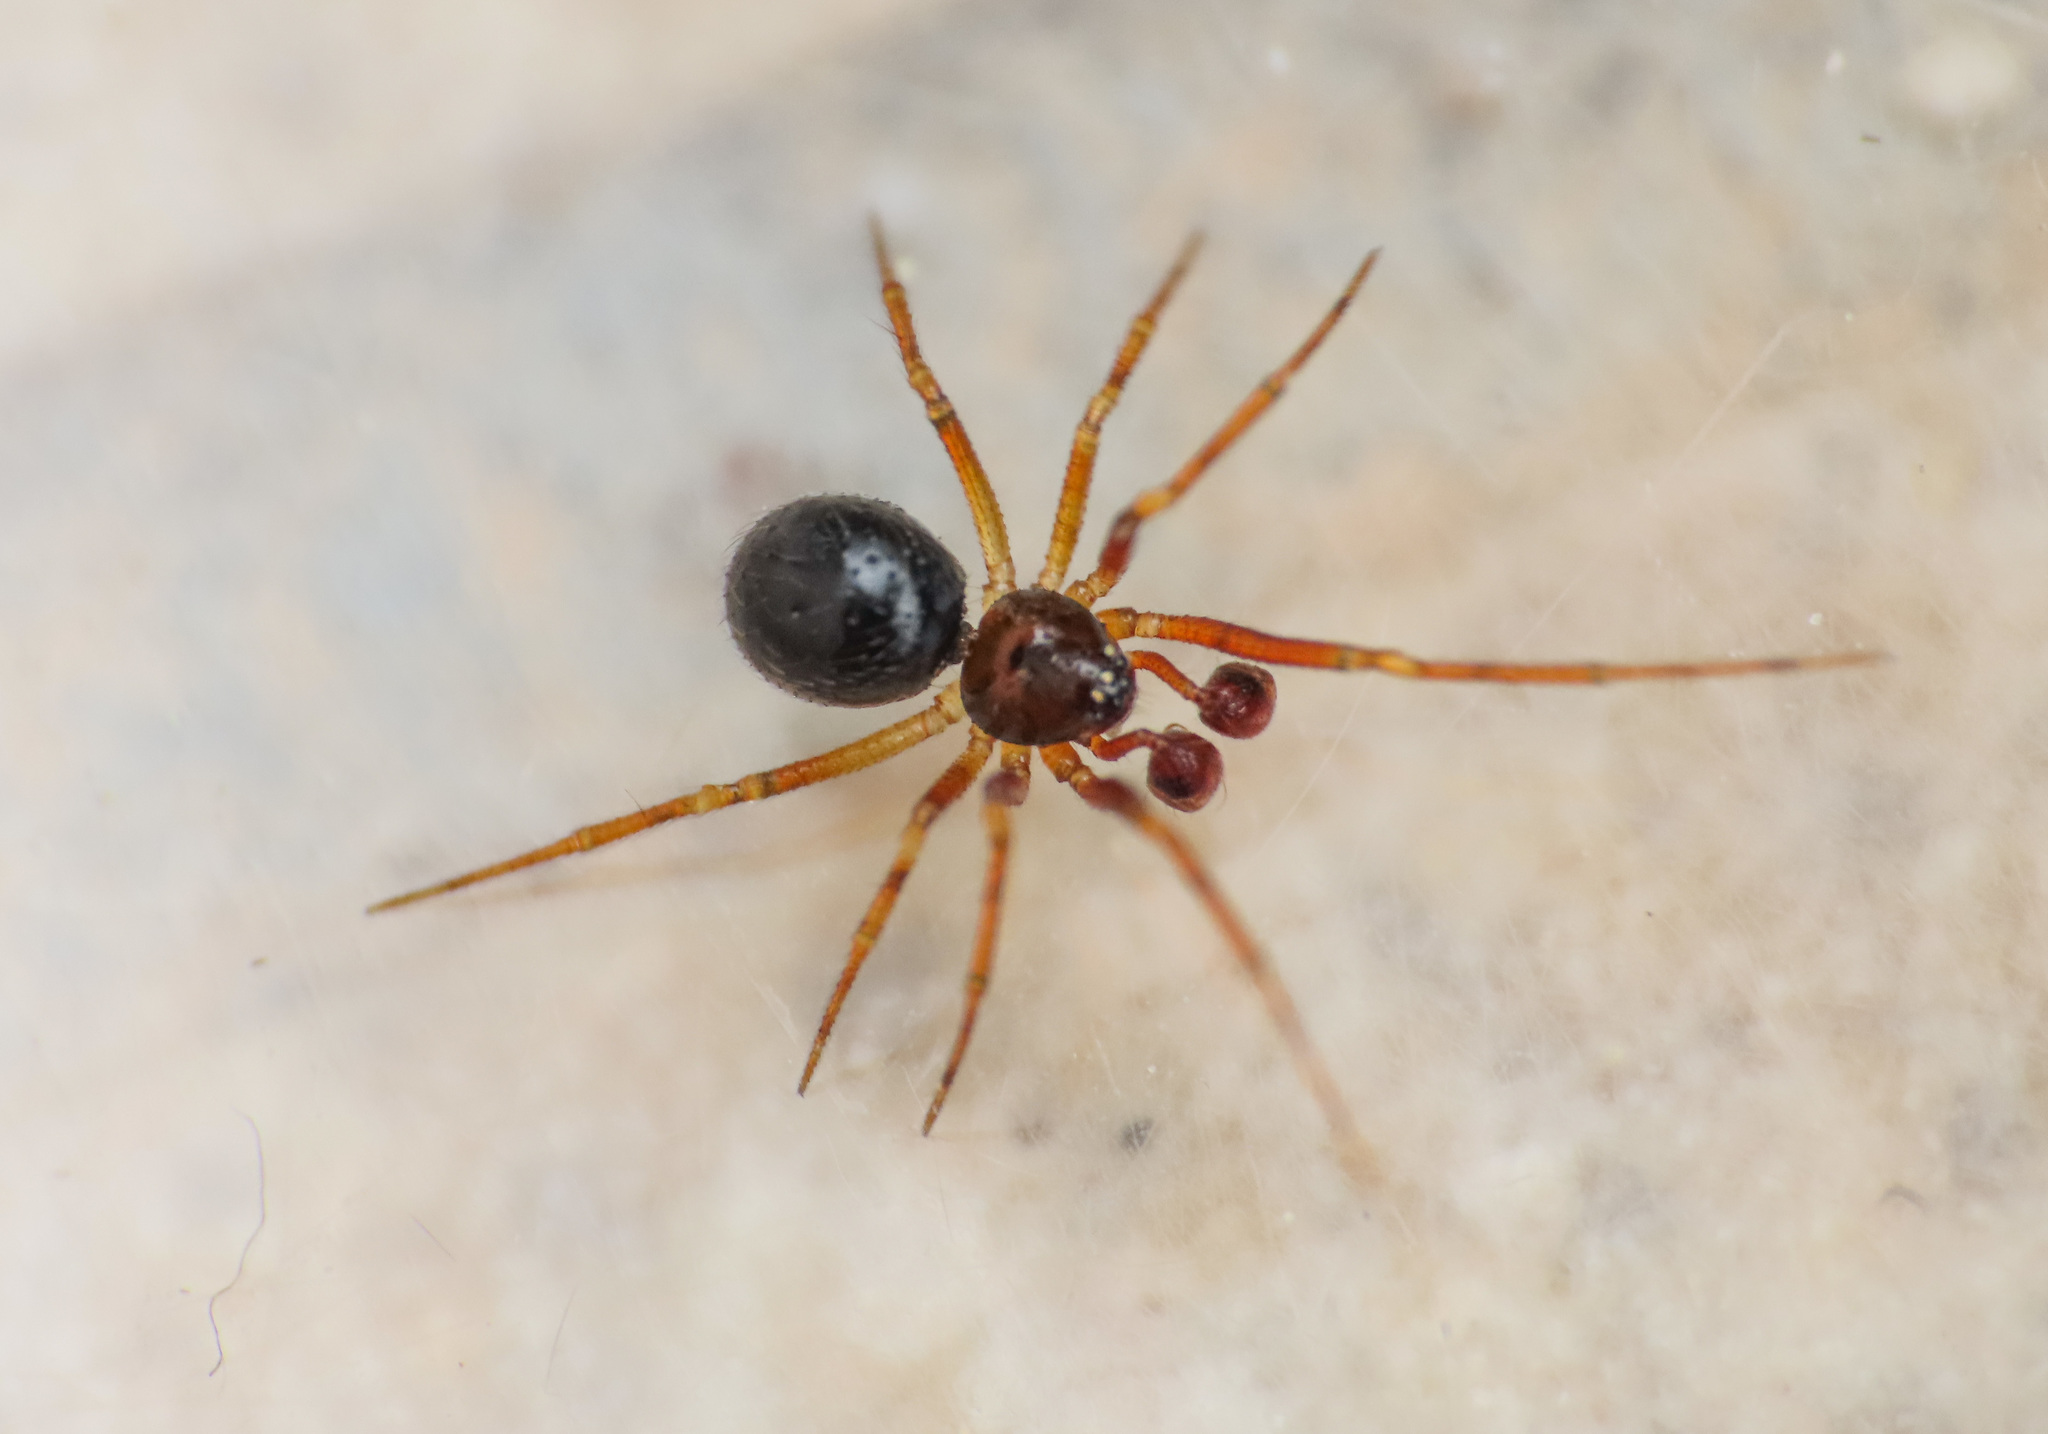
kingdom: Animalia
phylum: Arthropoda
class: Arachnida
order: Araneae
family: Theridiidae
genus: Sardinidion
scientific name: Sardinidion blackwalli
